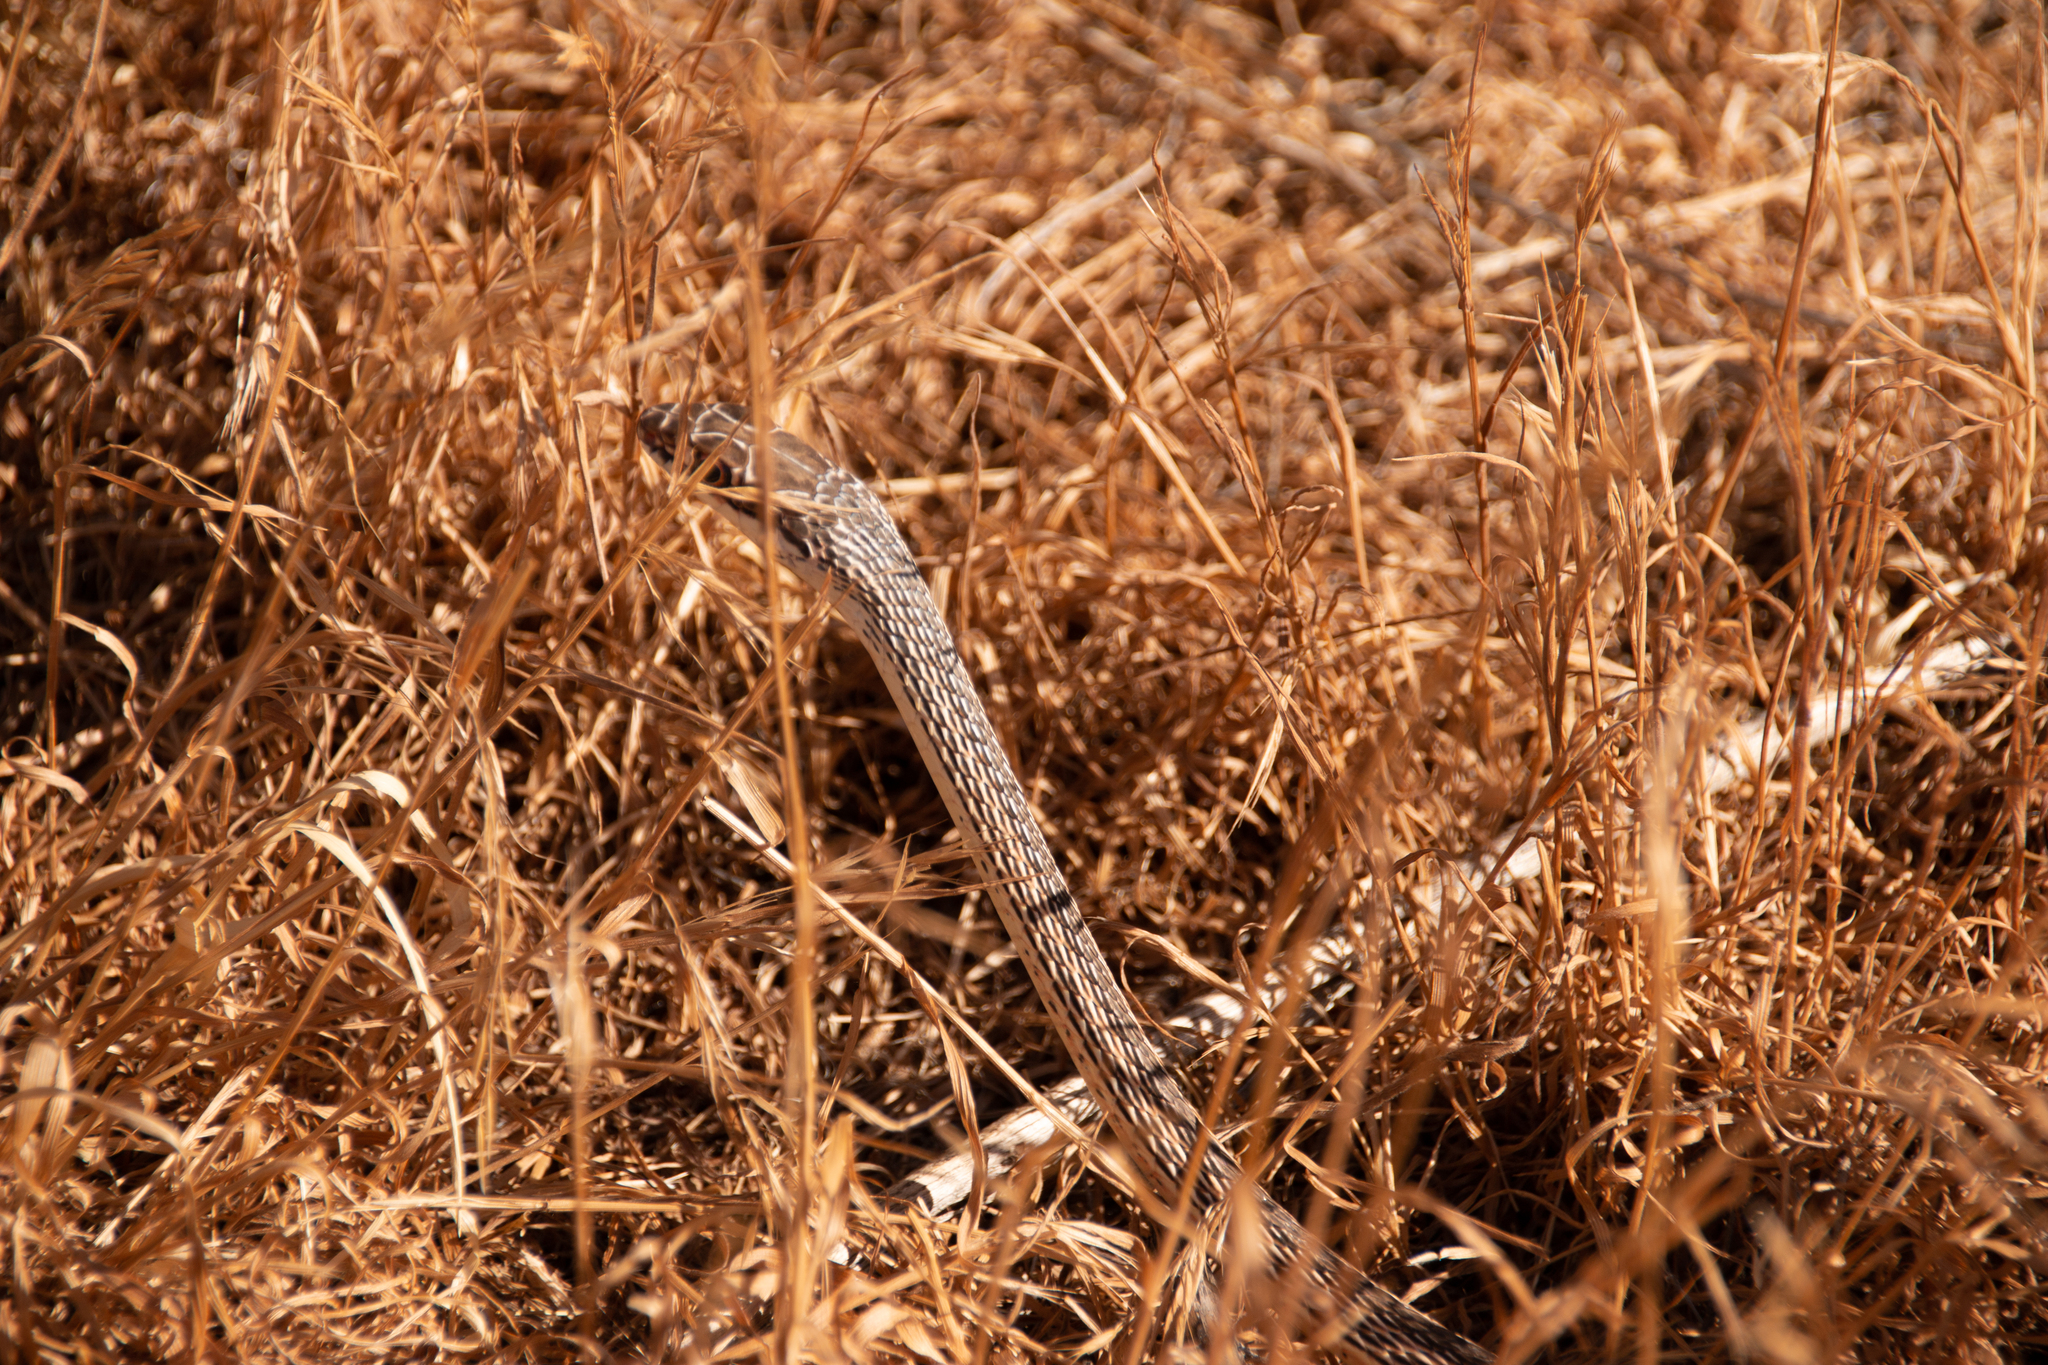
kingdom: Animalia
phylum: Chordata
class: Squamata
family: Colubridae
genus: Masticophis
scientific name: Masticophis taeniatus
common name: Striped whipsnake
